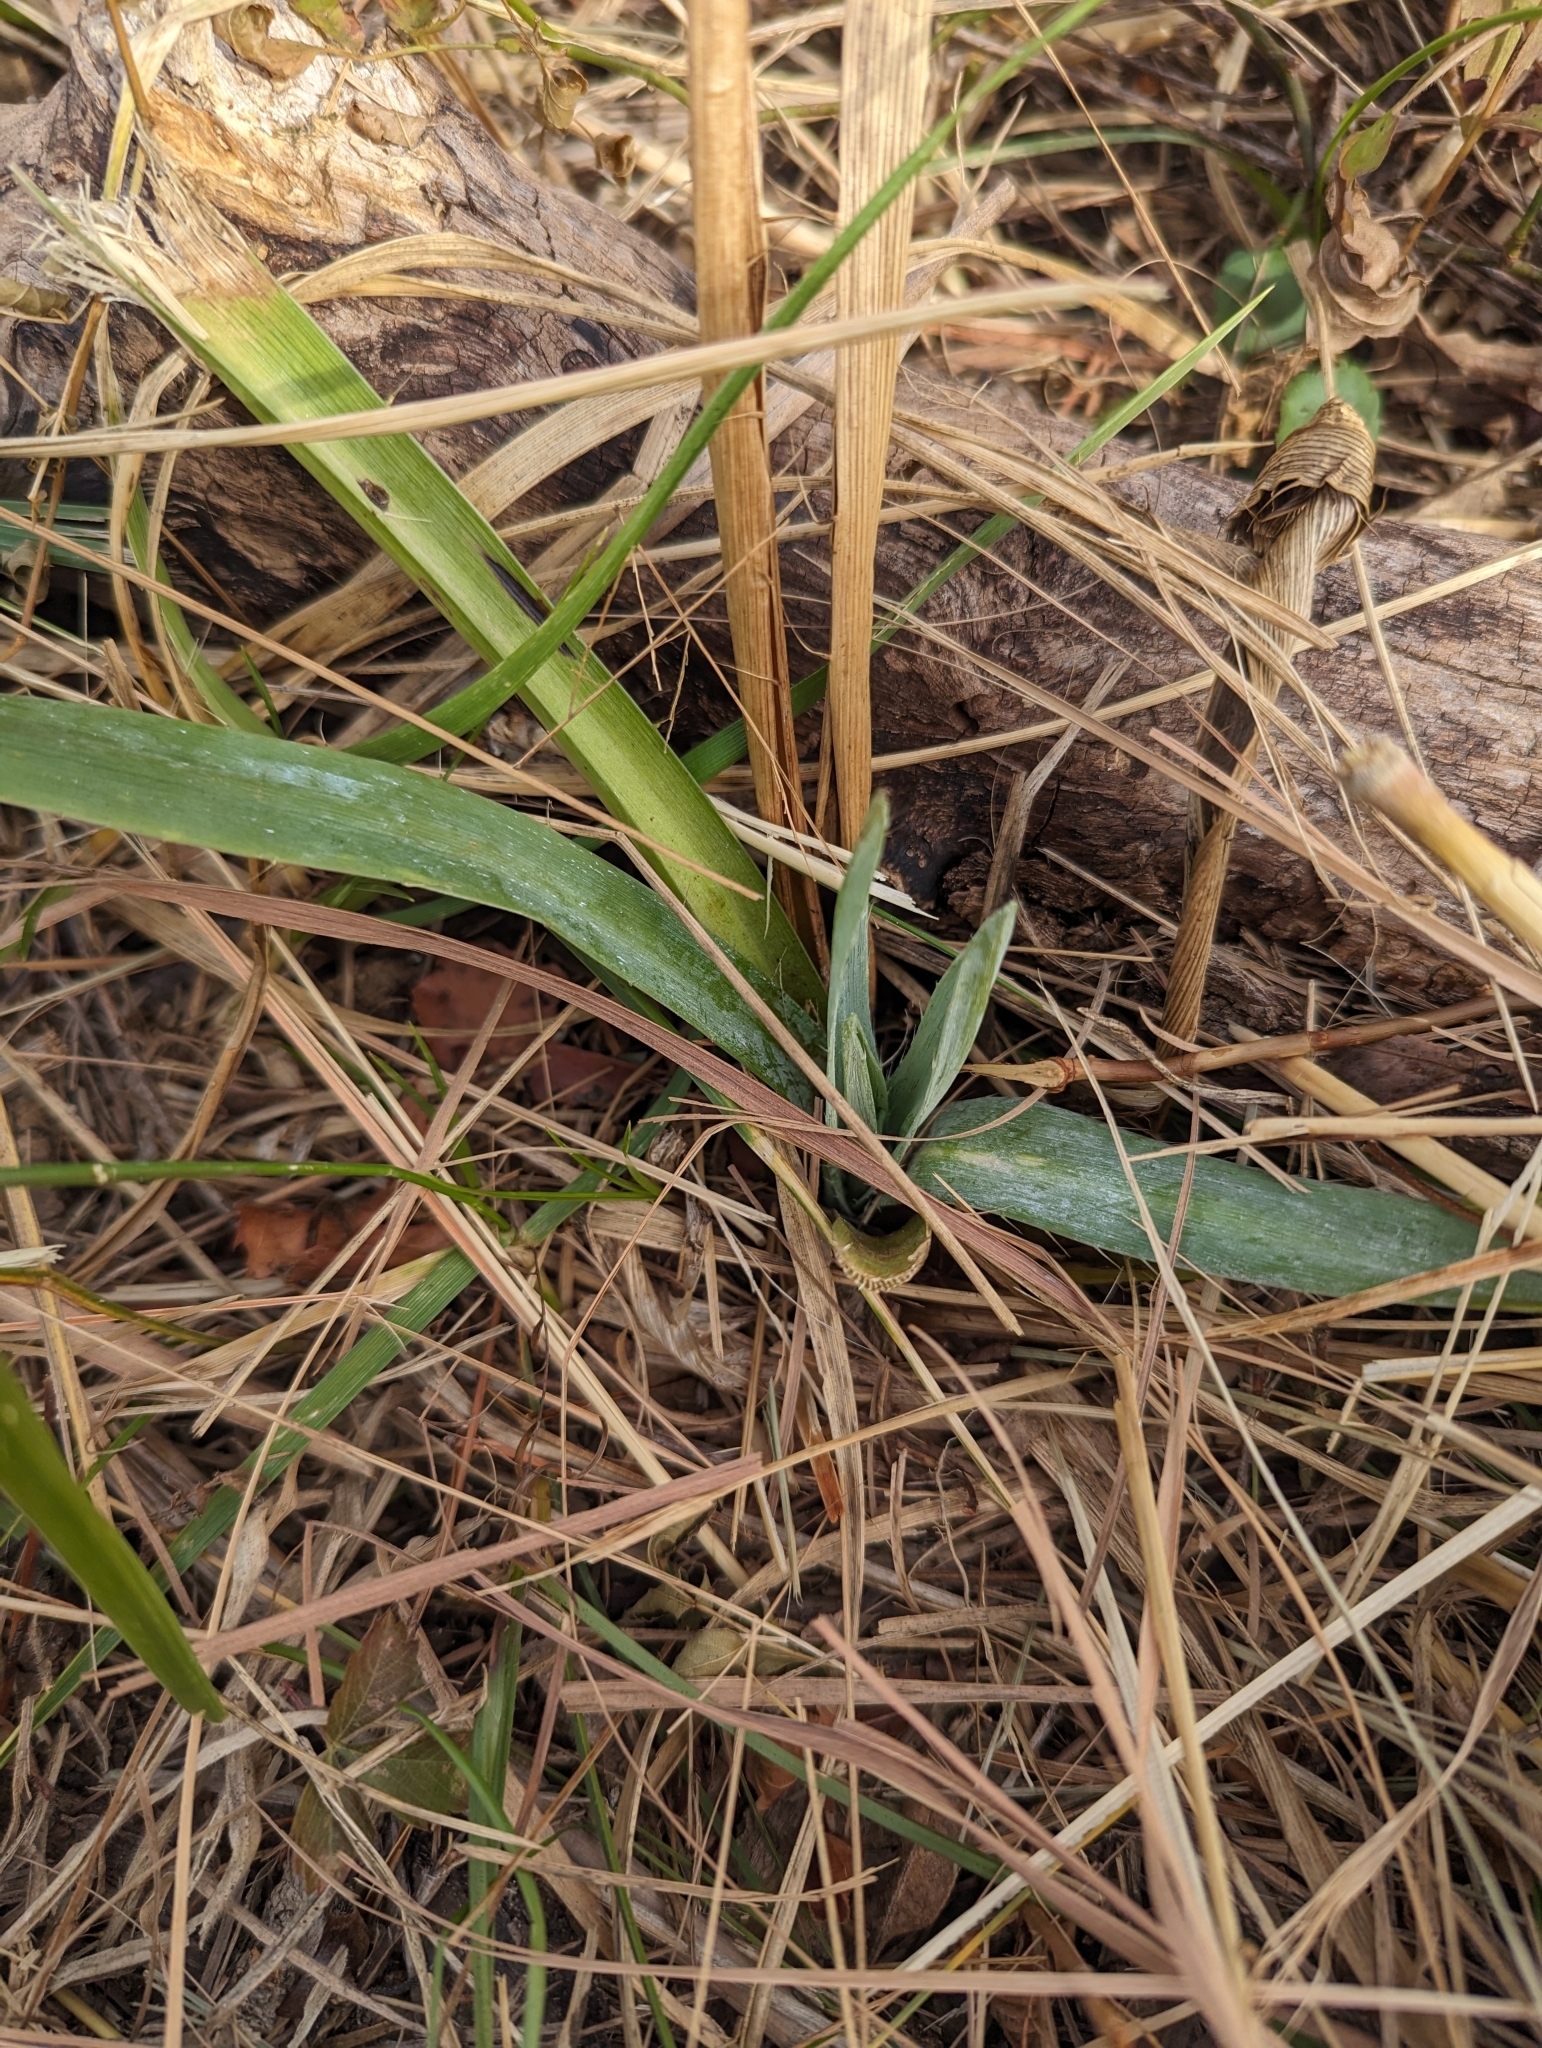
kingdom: Plantae
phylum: Tracheophyta
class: Magnoliopsida
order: Apiales
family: Apiaceae
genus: Eryngium
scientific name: Eryngium yuccifolium
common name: Button eryngo
